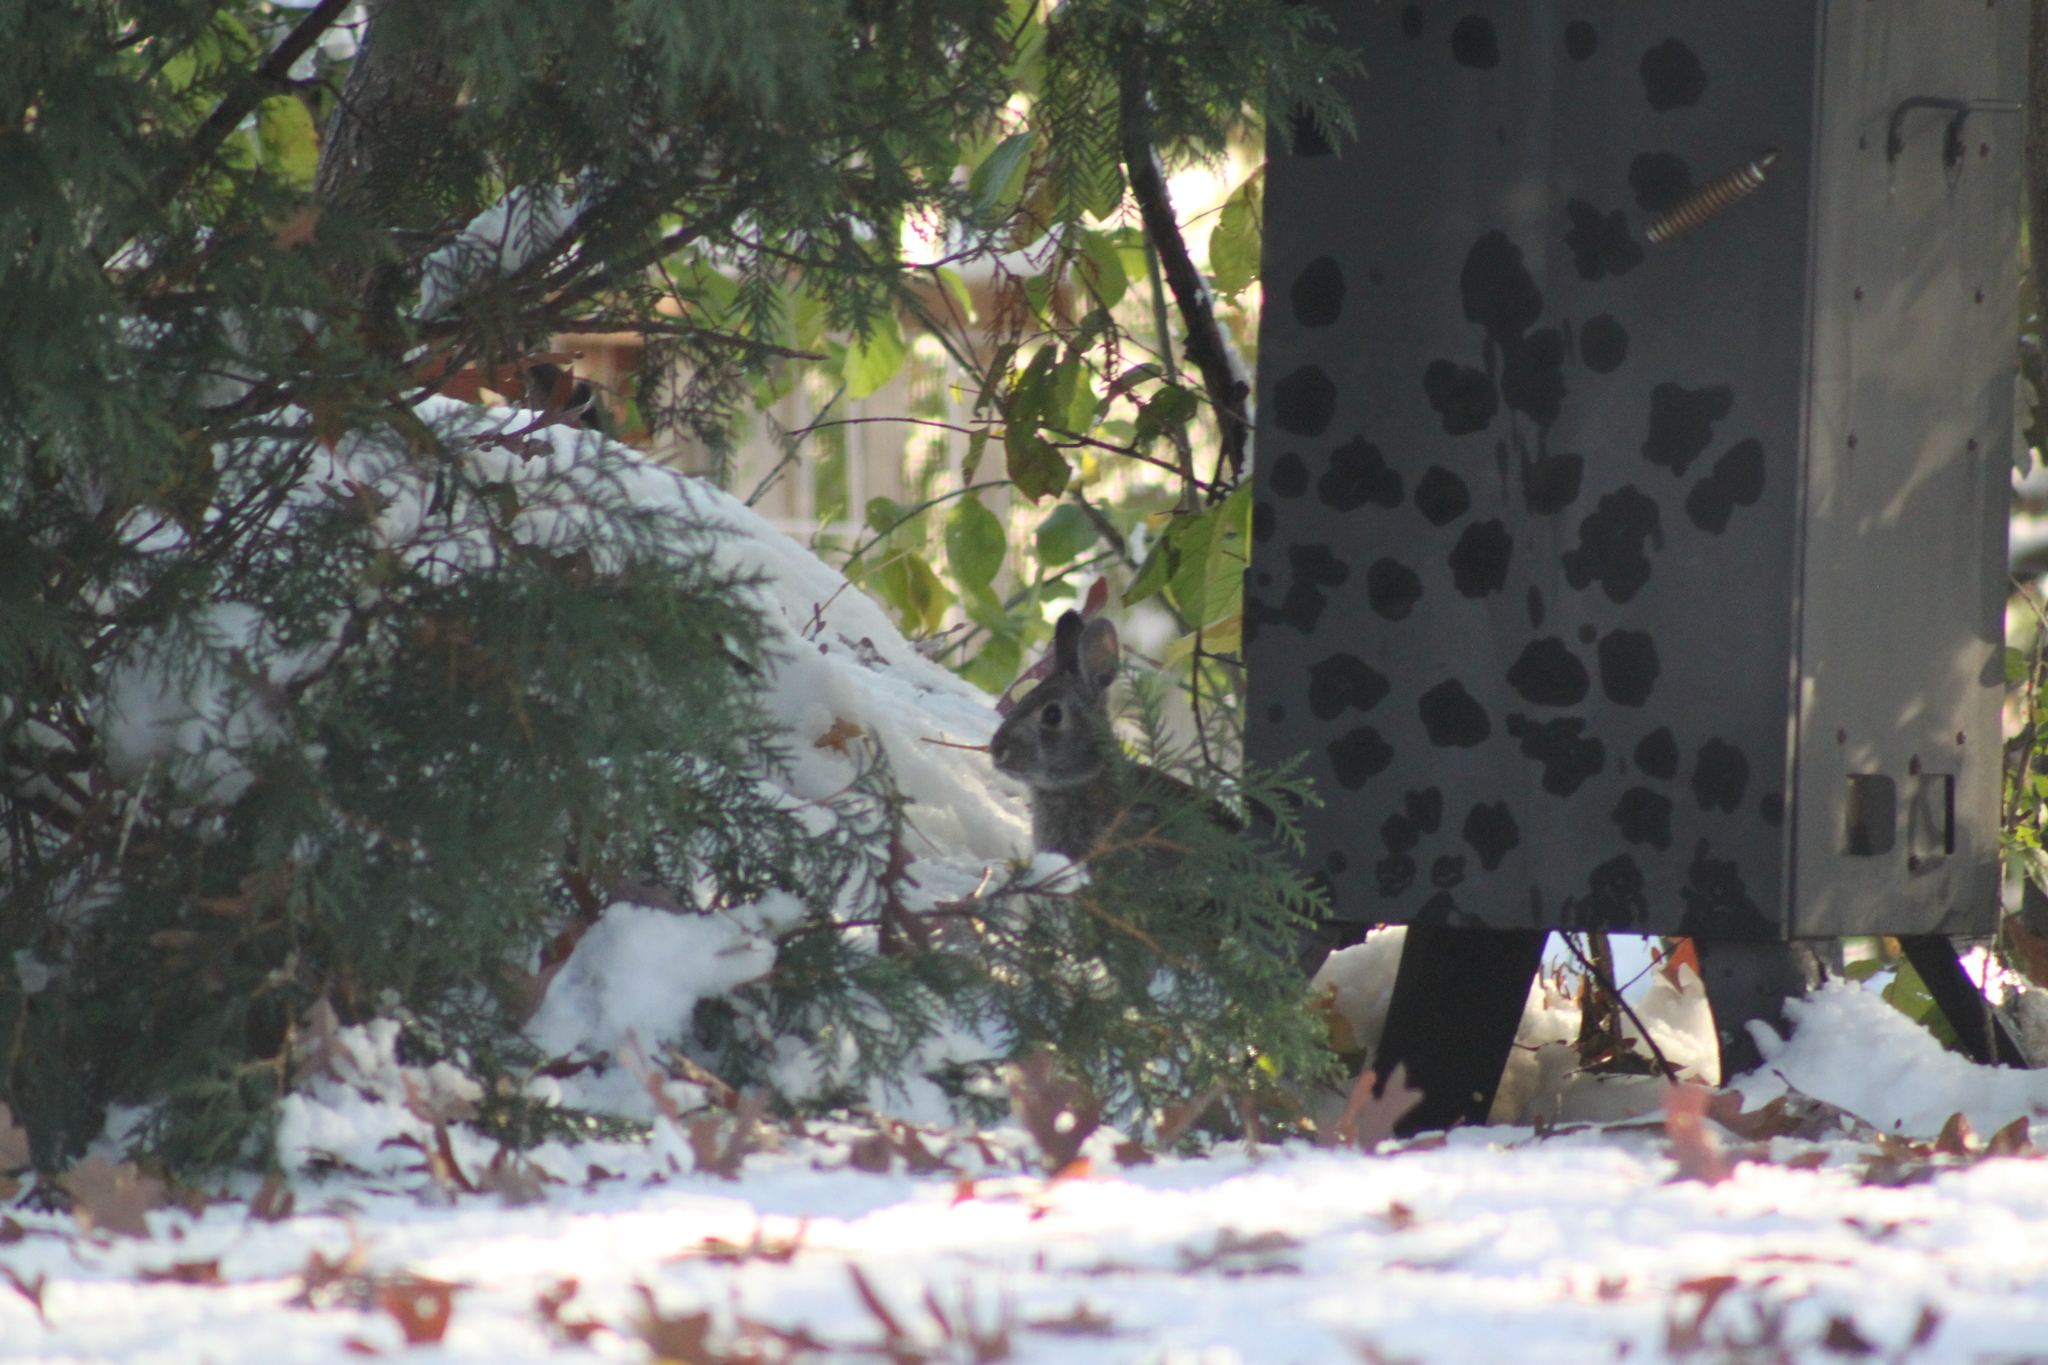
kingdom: Animalia
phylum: Chordata
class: Mammalia
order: Lagomorpha
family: Leporidae
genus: Sylvilagus
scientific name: Sylvilagus floridanus
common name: Eastern cottontail
